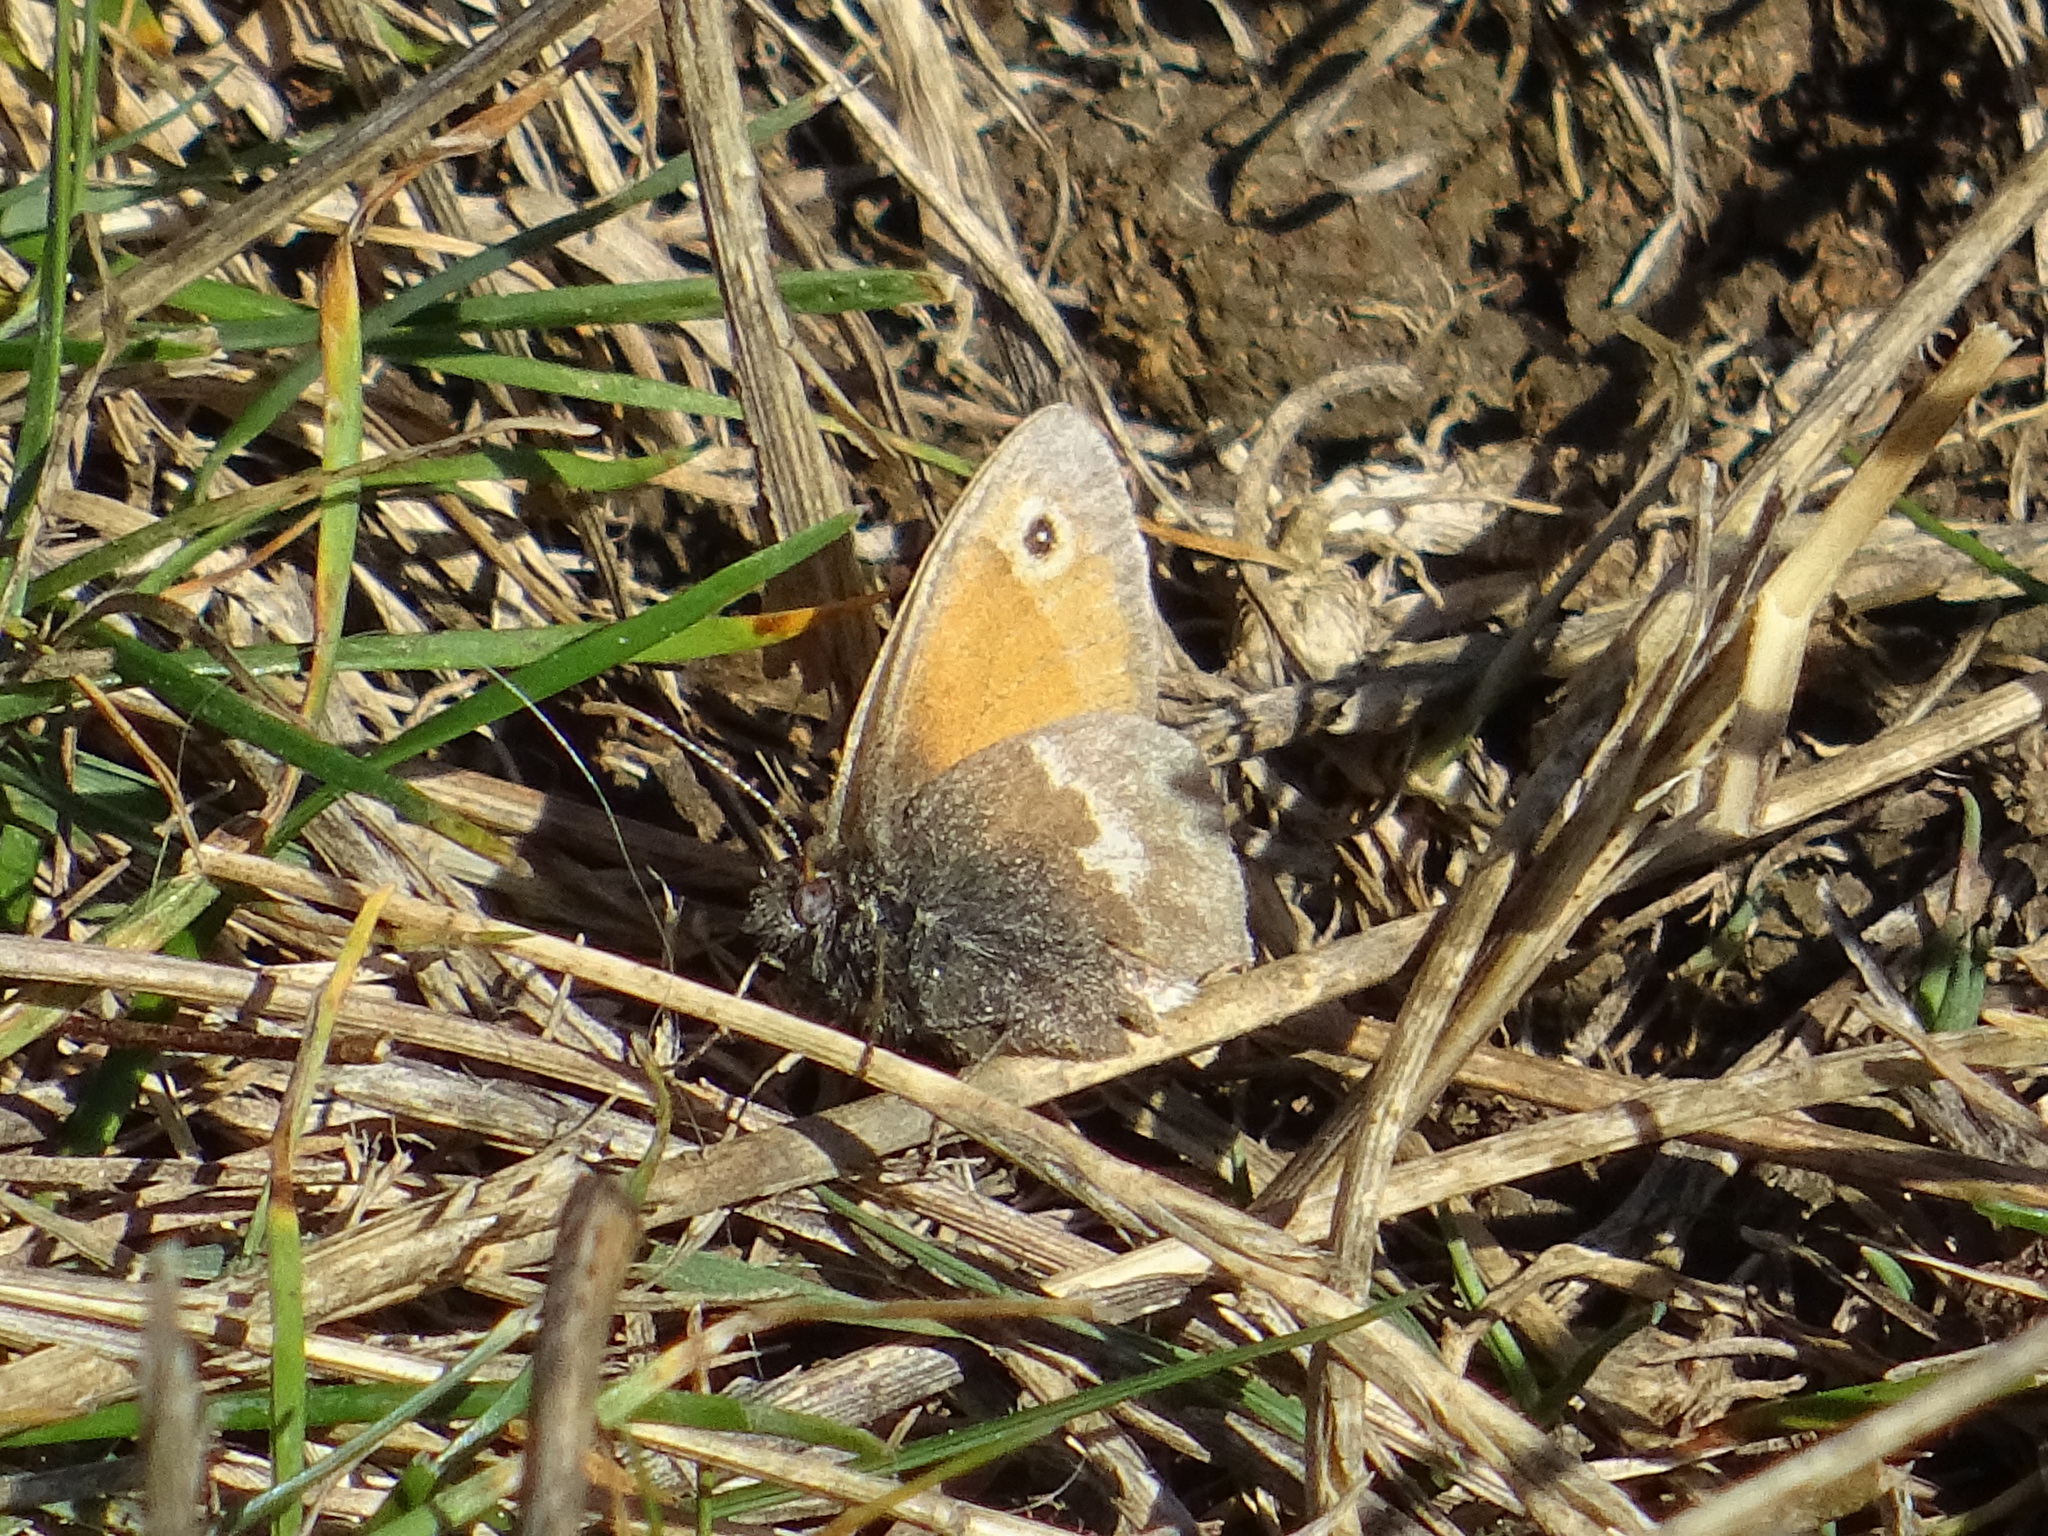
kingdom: Animalia
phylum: Arthropoda
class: Insecta
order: Lepidoptera
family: Nymphalidae
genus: Coenonympha
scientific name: Coenonympha pamphilus
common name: Small heath
